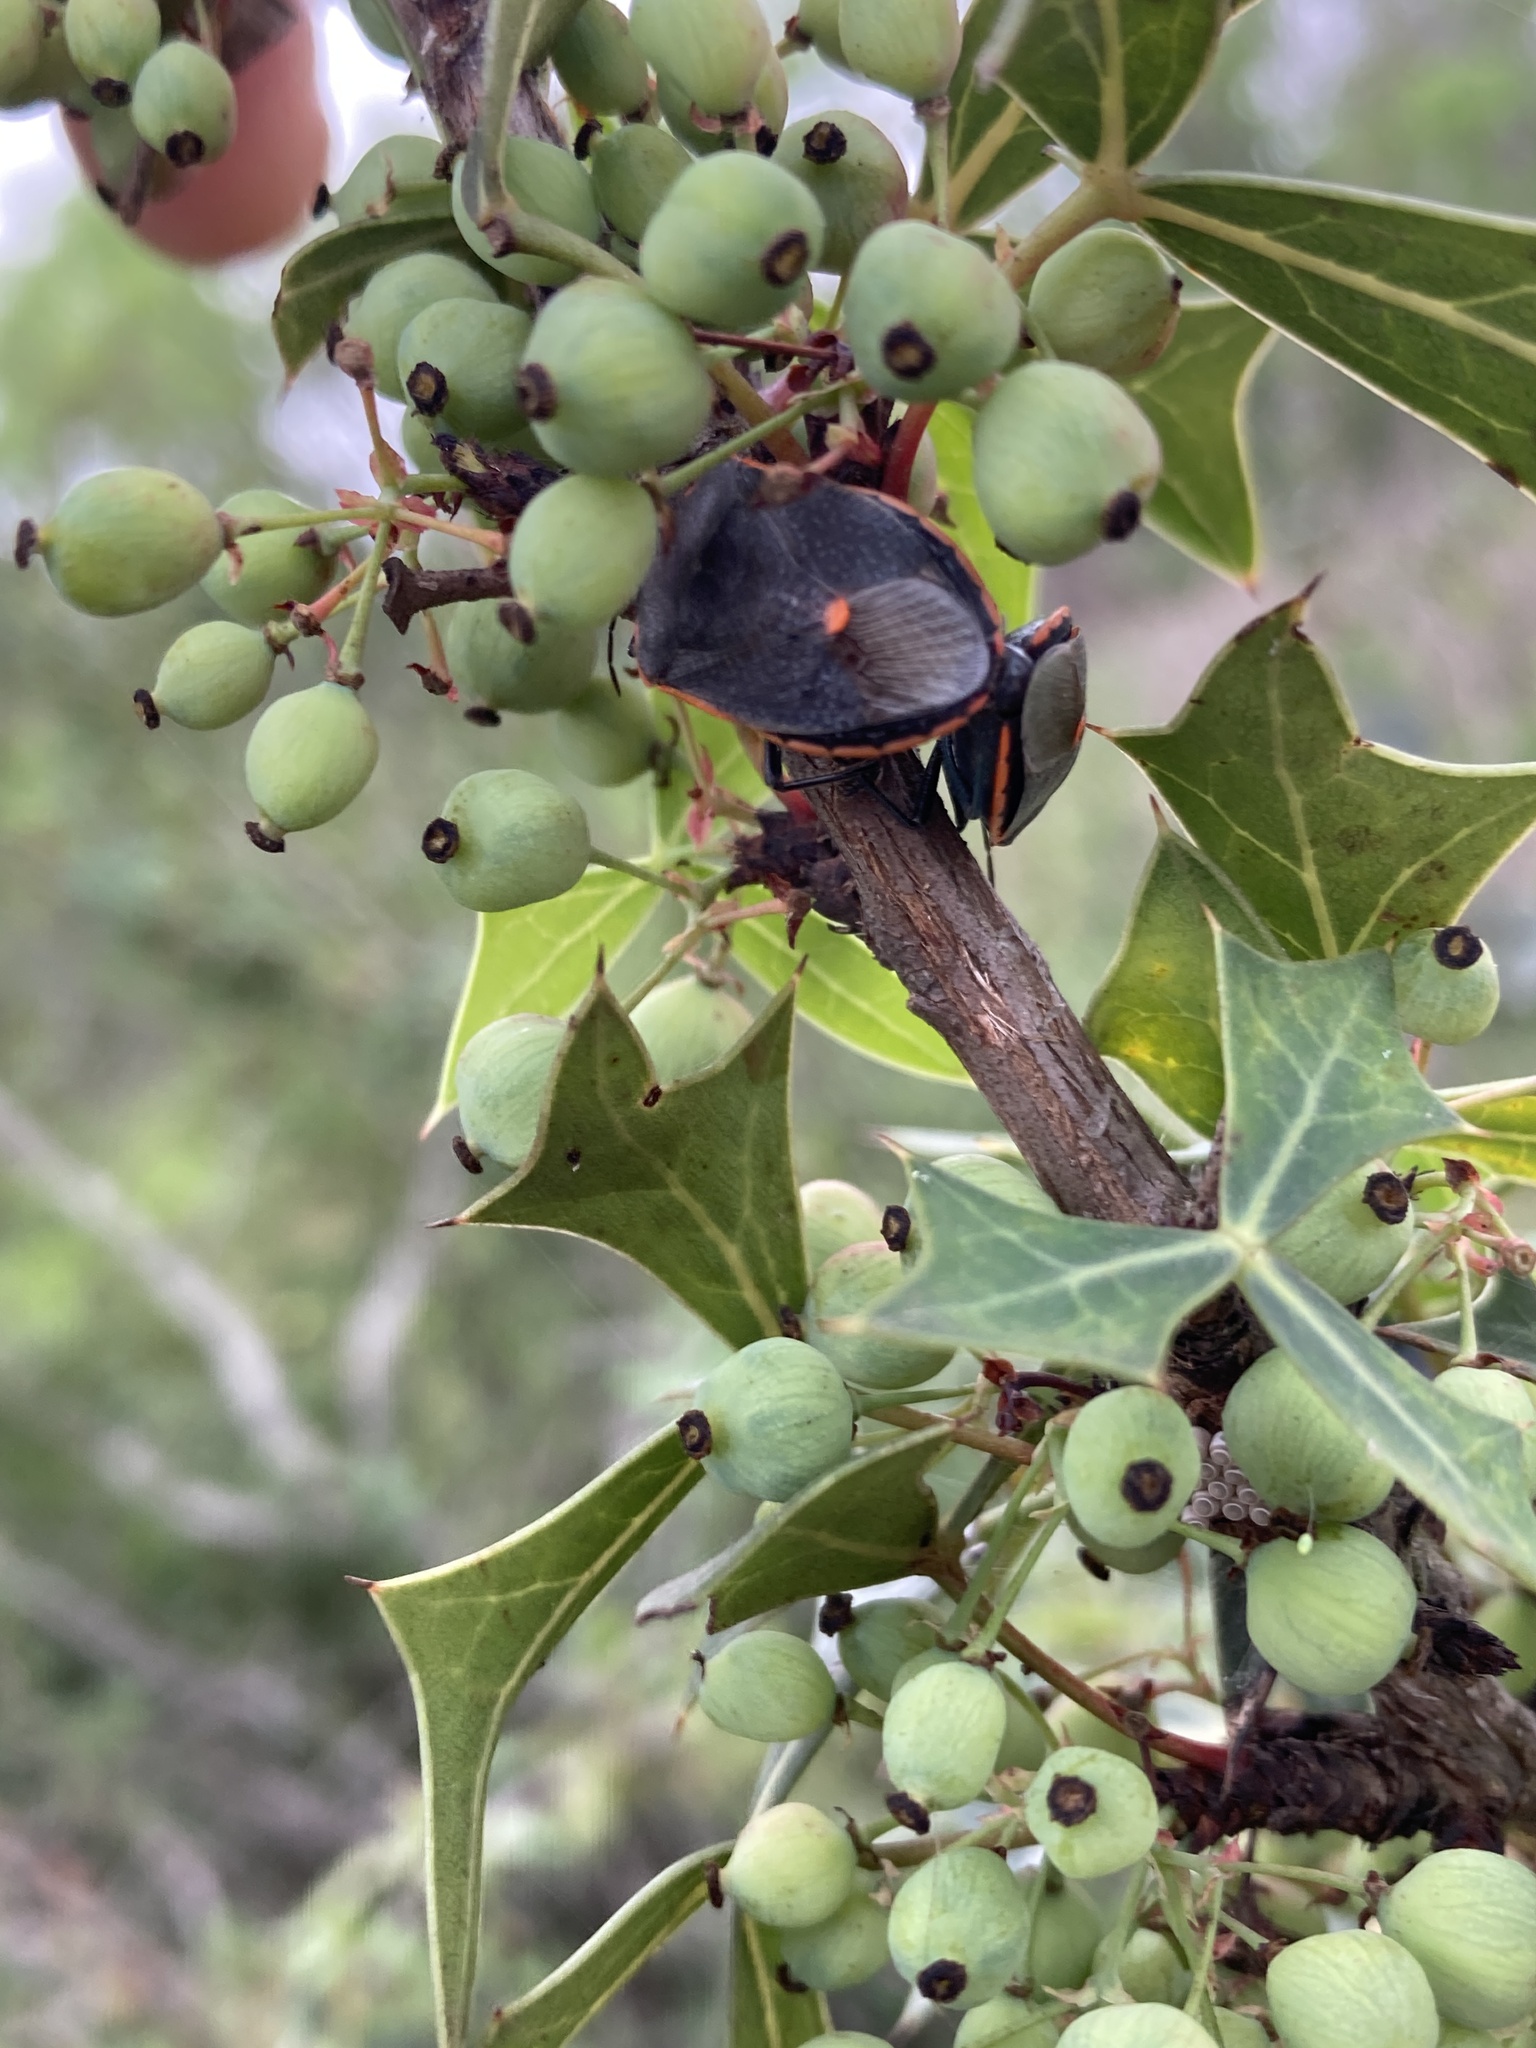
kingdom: Animalia
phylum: Arthropoda
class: Insecta
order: Hemiptera
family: Pentatomidae
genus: Chlorochroa
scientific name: Chlorochroa ligata
